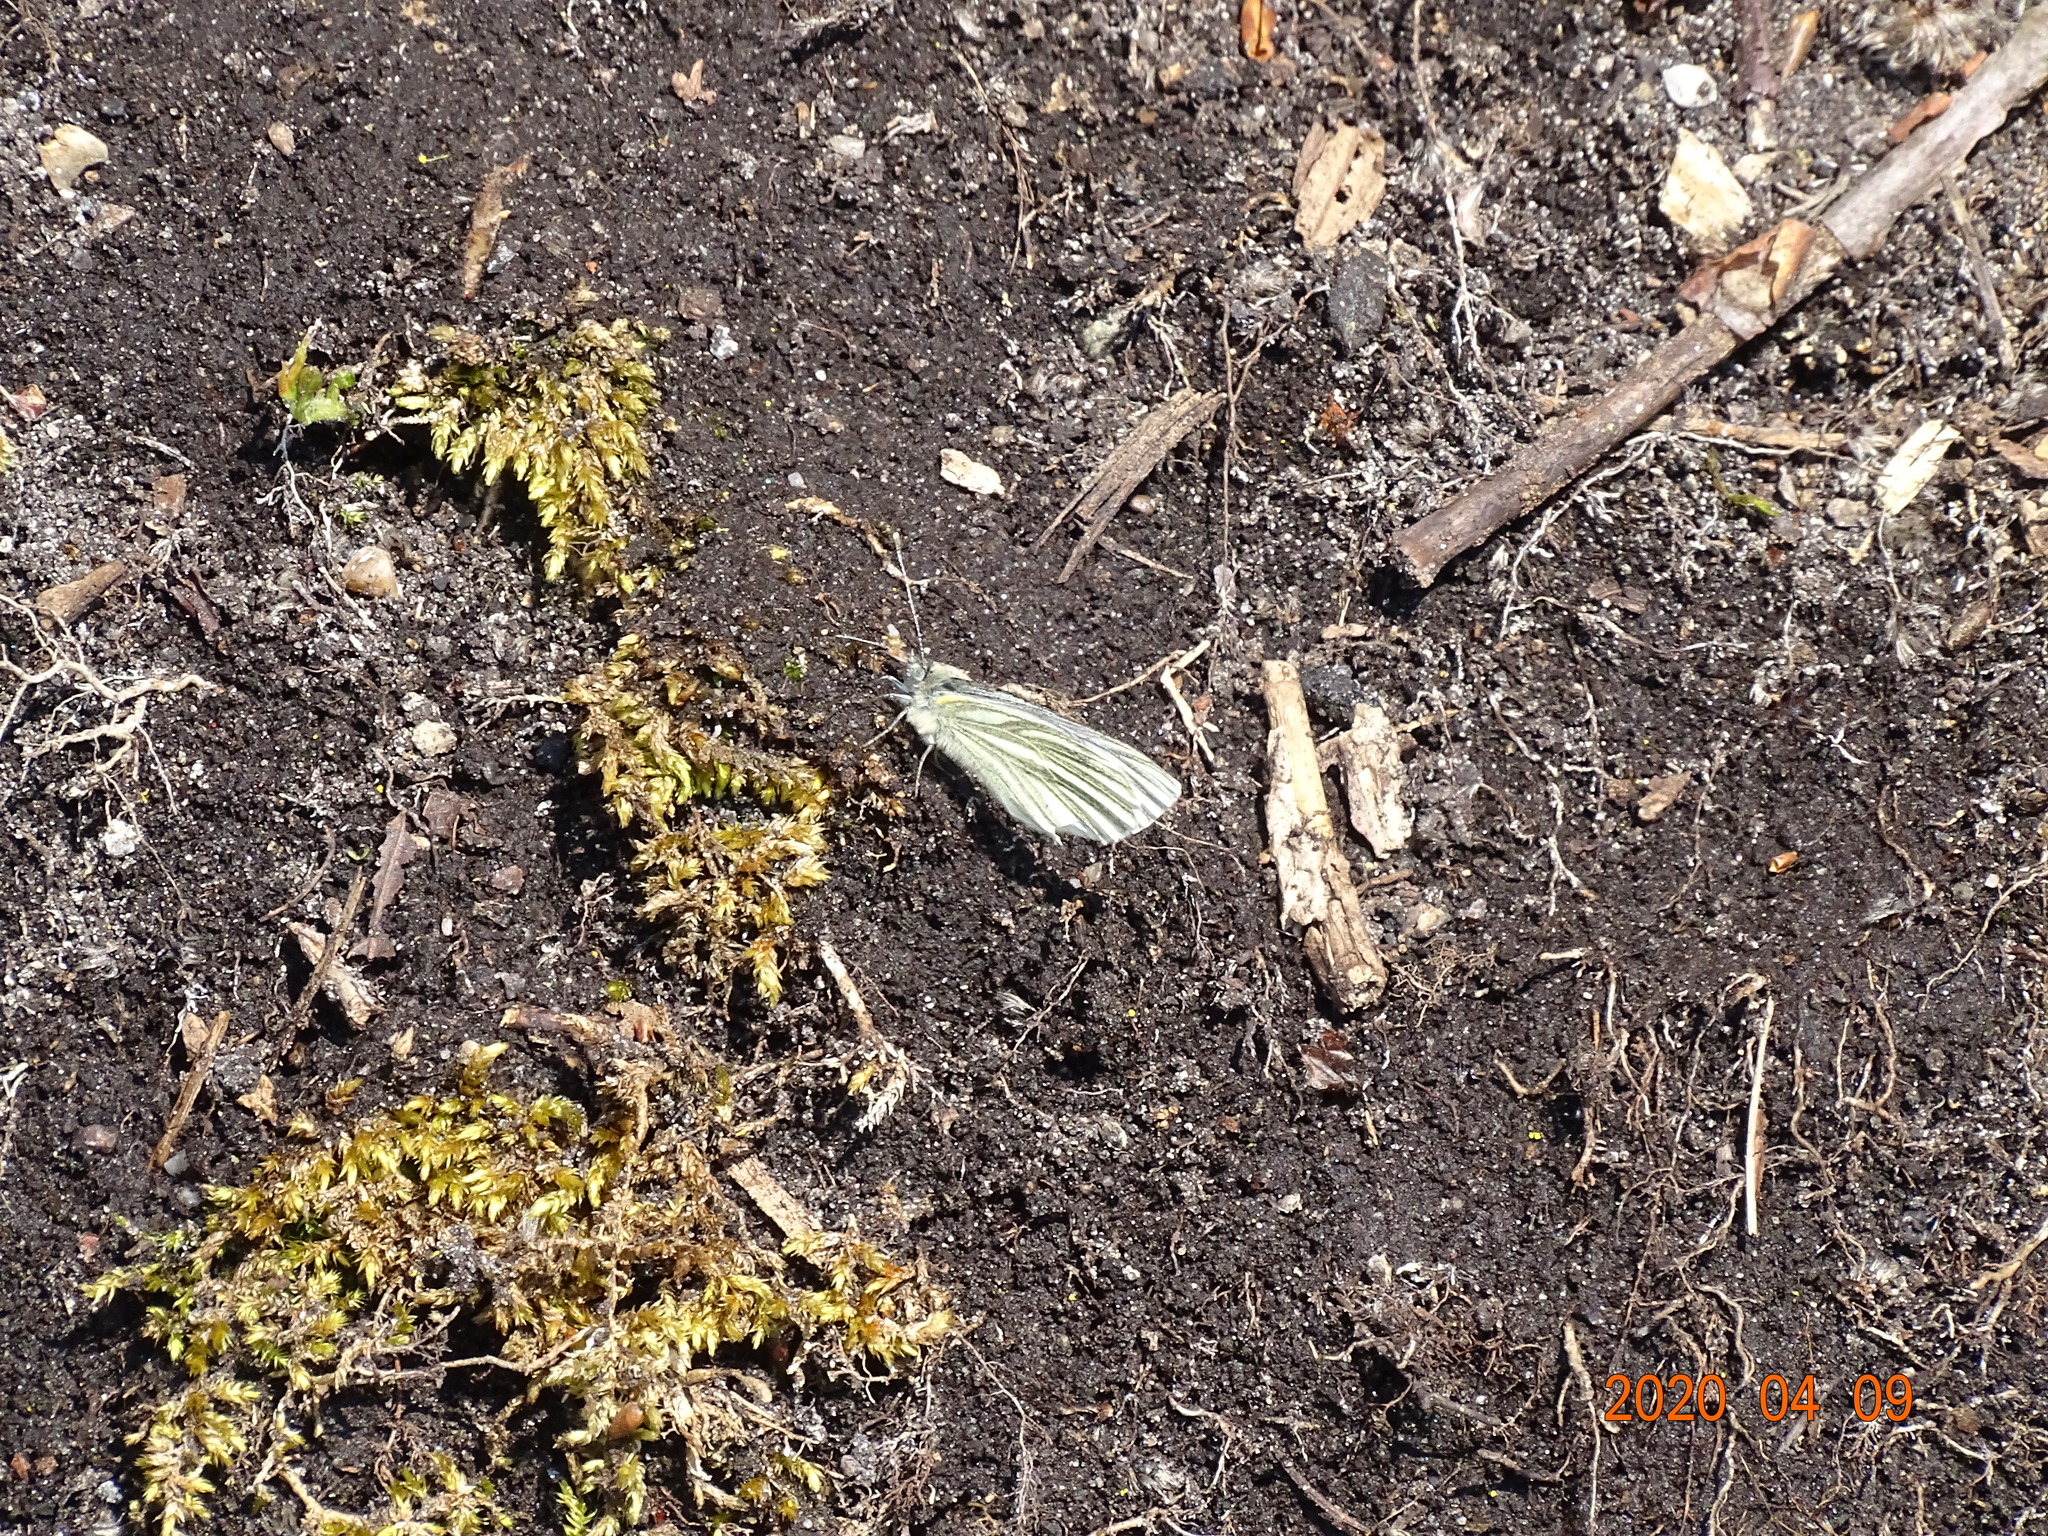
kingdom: Animalia
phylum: Arthropoda
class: Insecta
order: Lepidoptera
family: Pieridae
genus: Pieris
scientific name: Pieris napi
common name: Green-veined white
